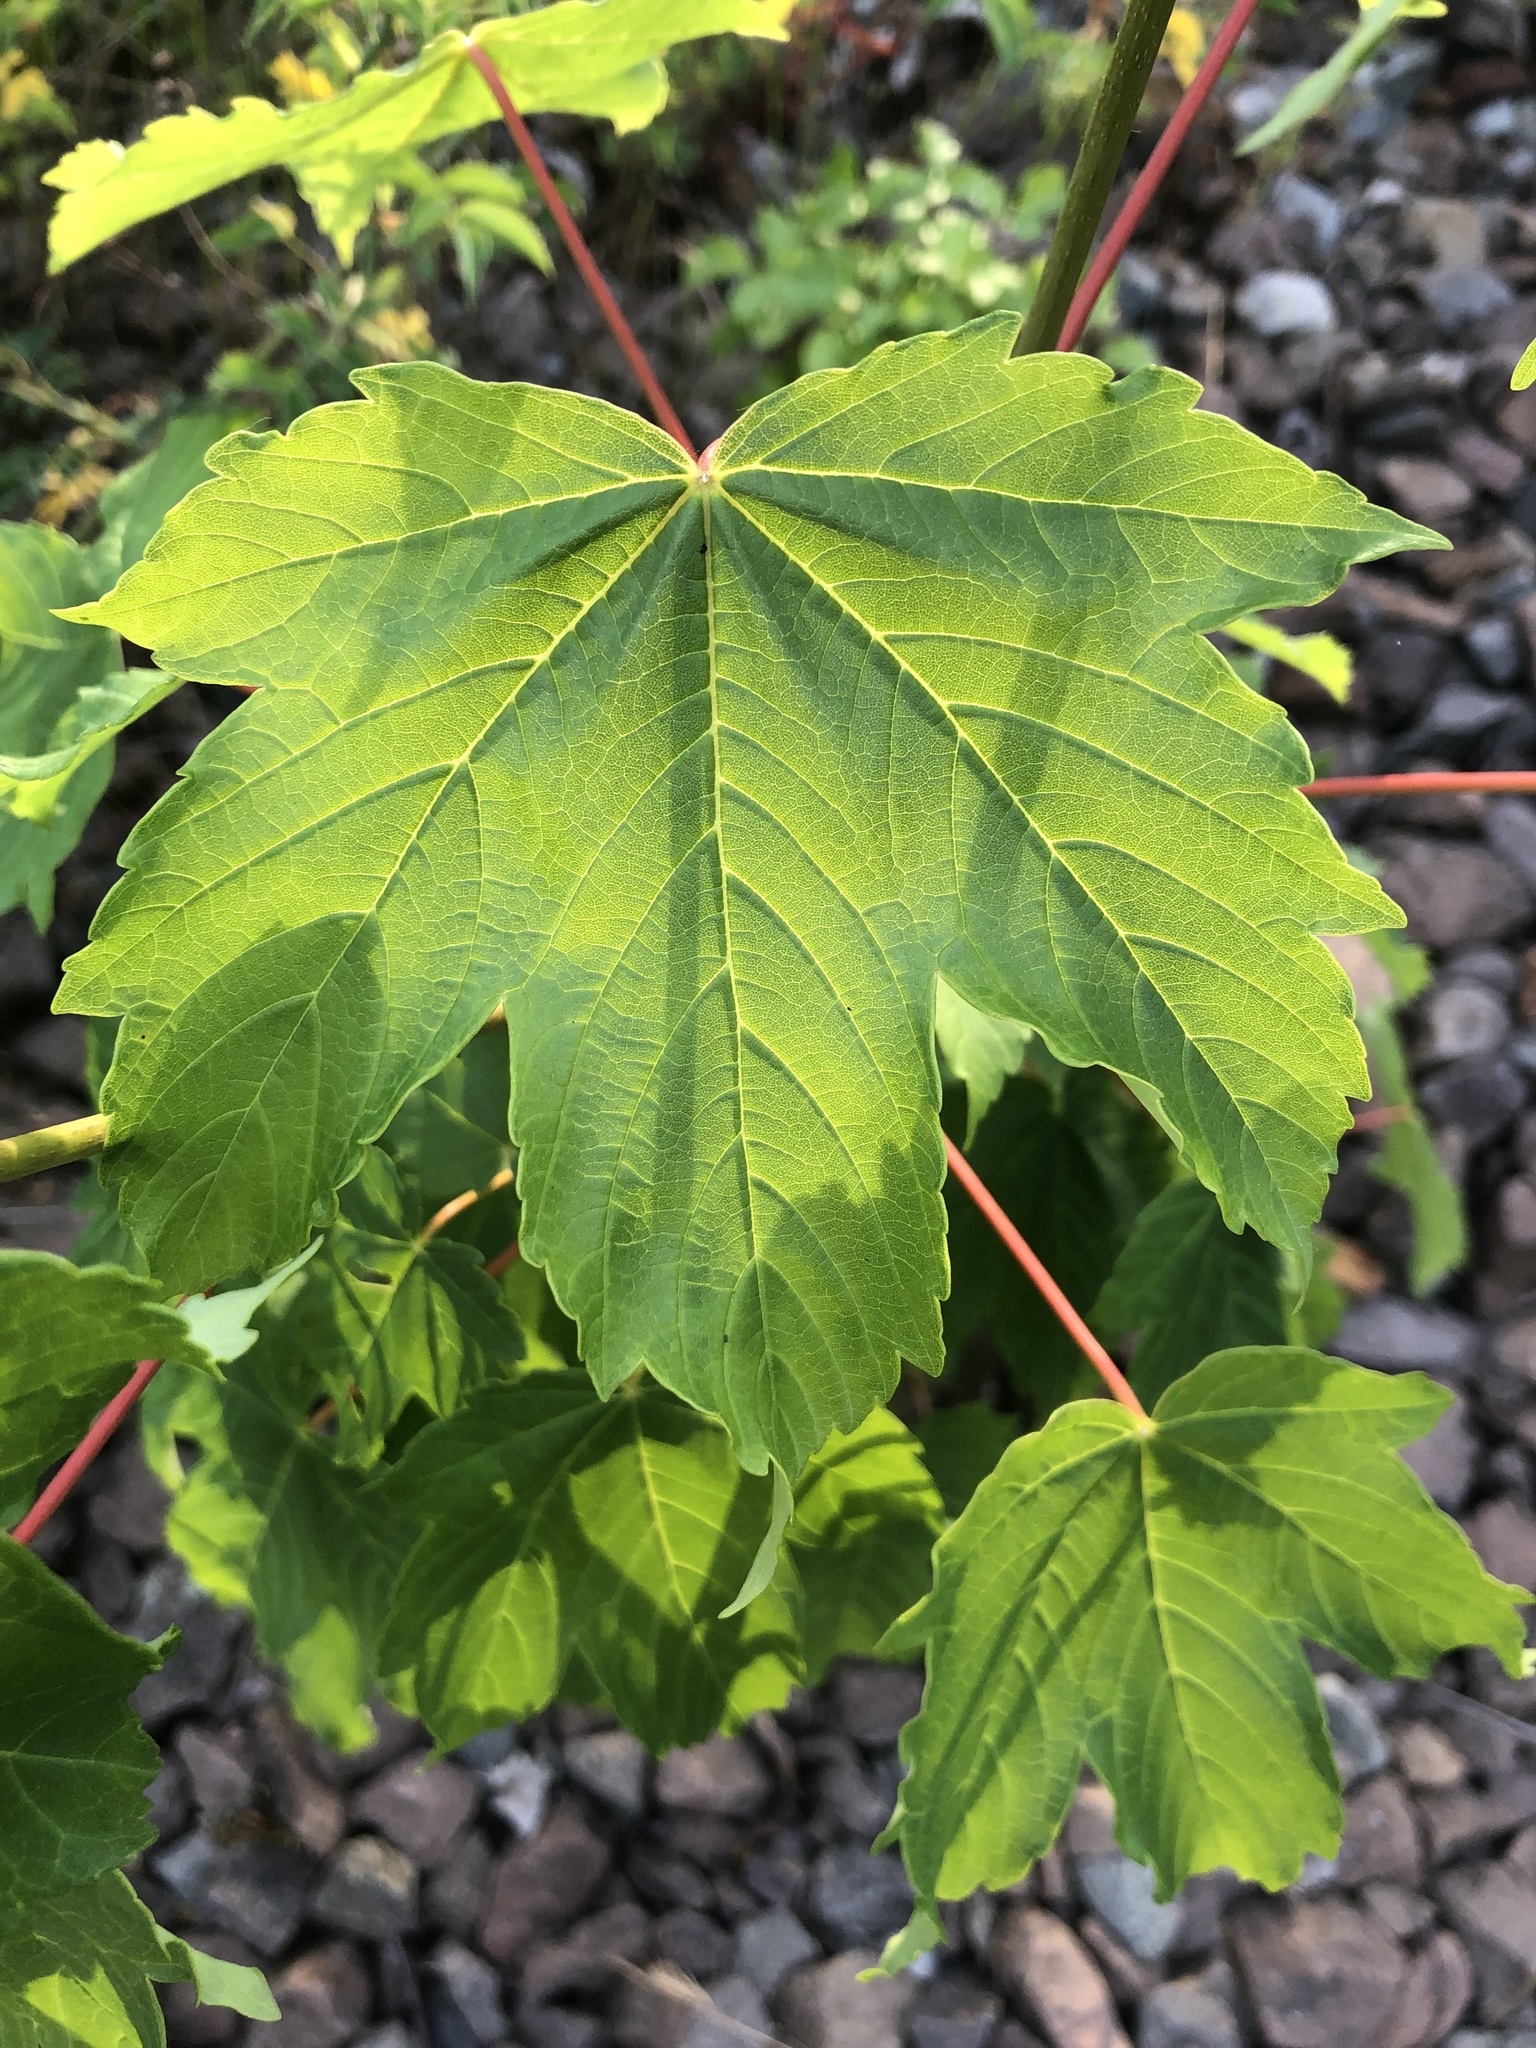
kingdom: Plantae
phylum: Tracheophyta
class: Magnoliopsida
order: Sapindales
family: Sapindaceae
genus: Acer
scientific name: Acer pseudoplatanus
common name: Sycamore
